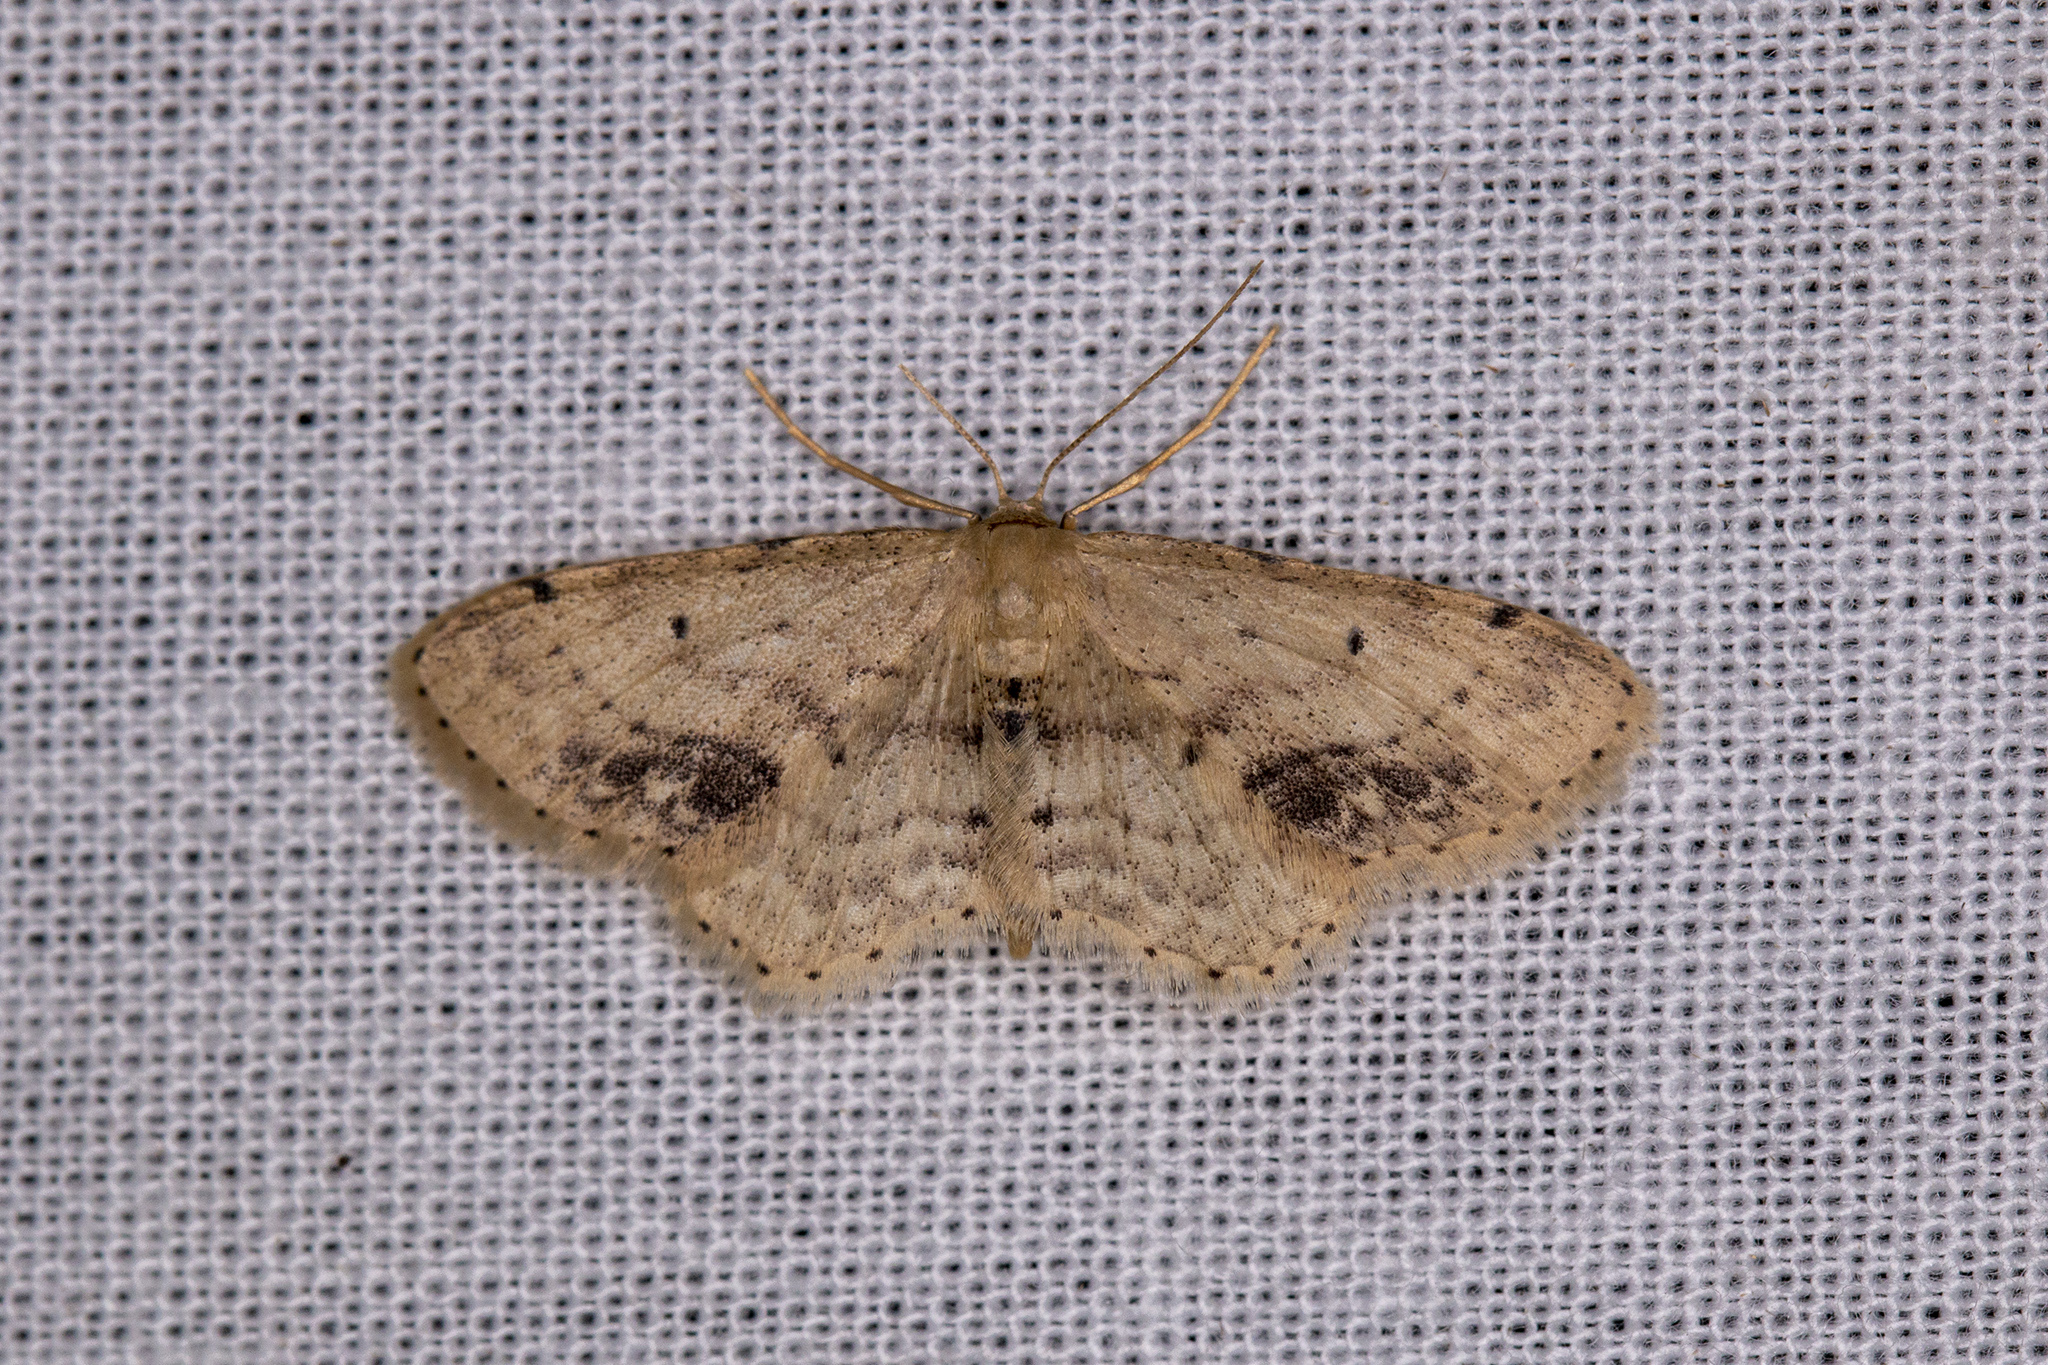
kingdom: Animalia
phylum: Arthropoda
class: Insecta
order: Lepidoptera
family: Geometridae
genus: Idaea
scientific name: Idaea dimidiata
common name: Single-dotted wave
